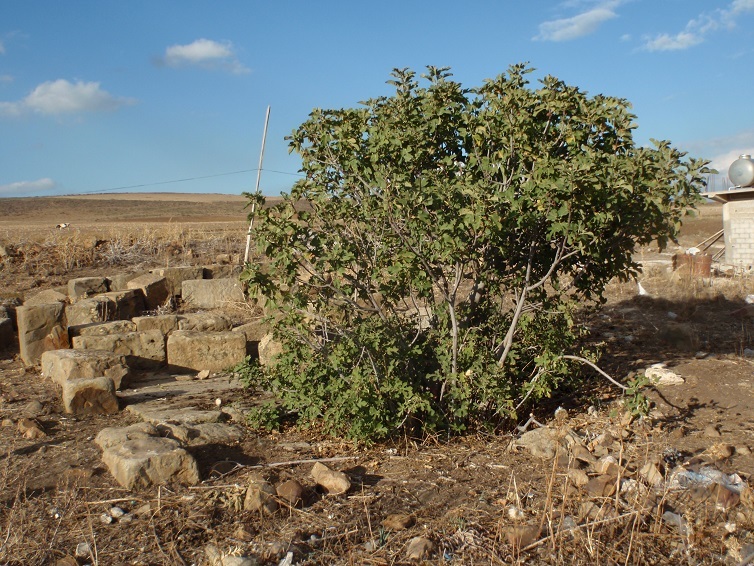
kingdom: Plantae
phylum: Tracheophyta
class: Magnoliopsida
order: Rosales
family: Moraceae
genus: Ficus
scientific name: Ficus carica
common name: Fig
